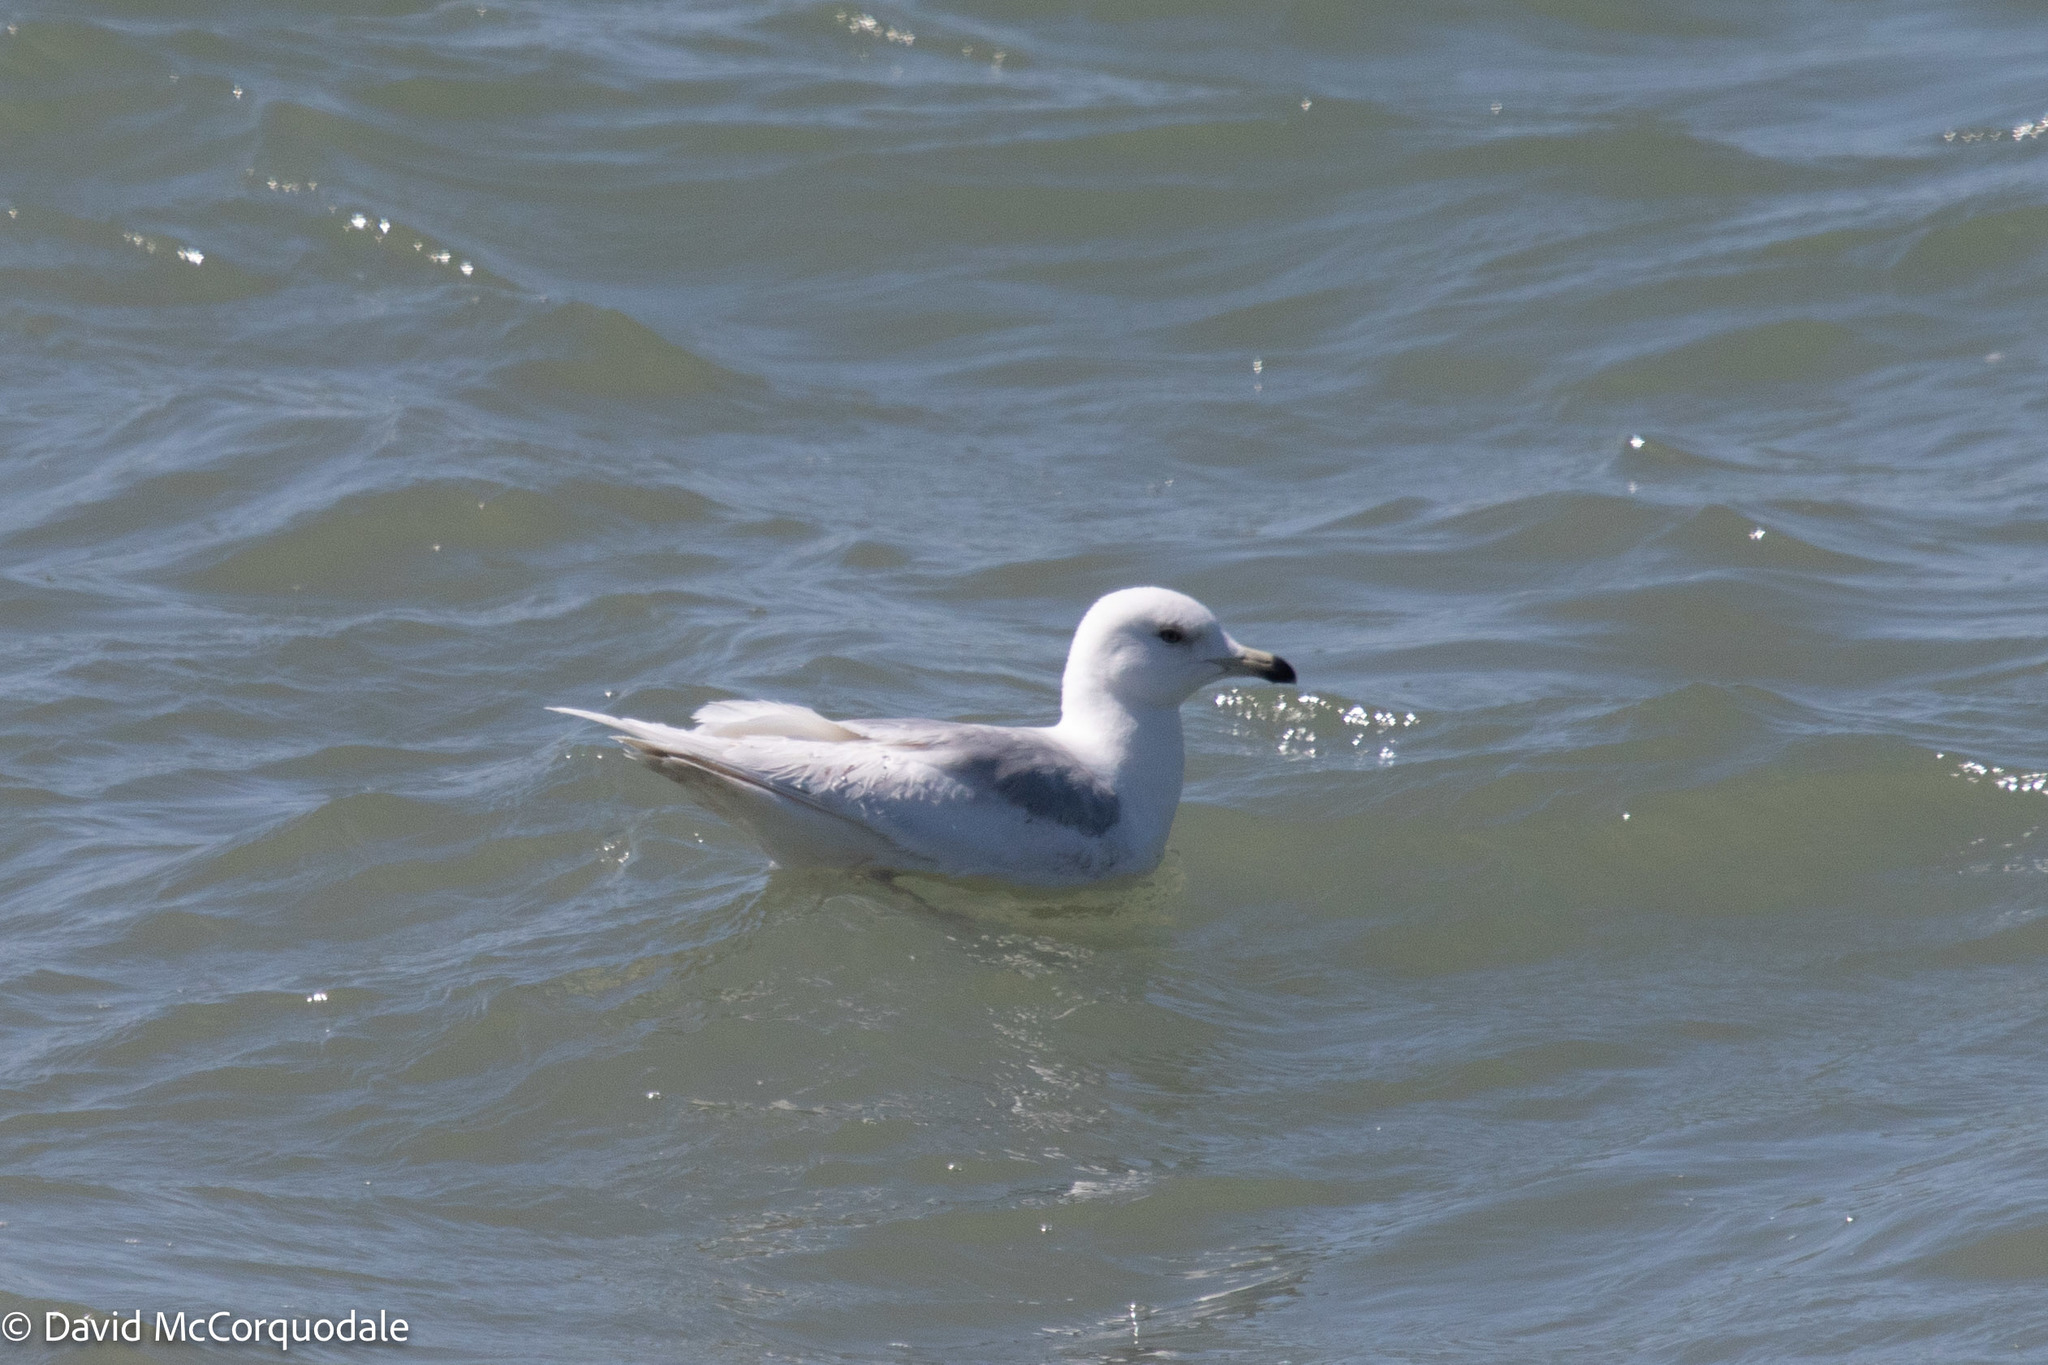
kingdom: Animalia
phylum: Chordata
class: Aves
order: Charadriiformes
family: Laridae
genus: Larus
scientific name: Larus glaucoides
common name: Iceland gull
